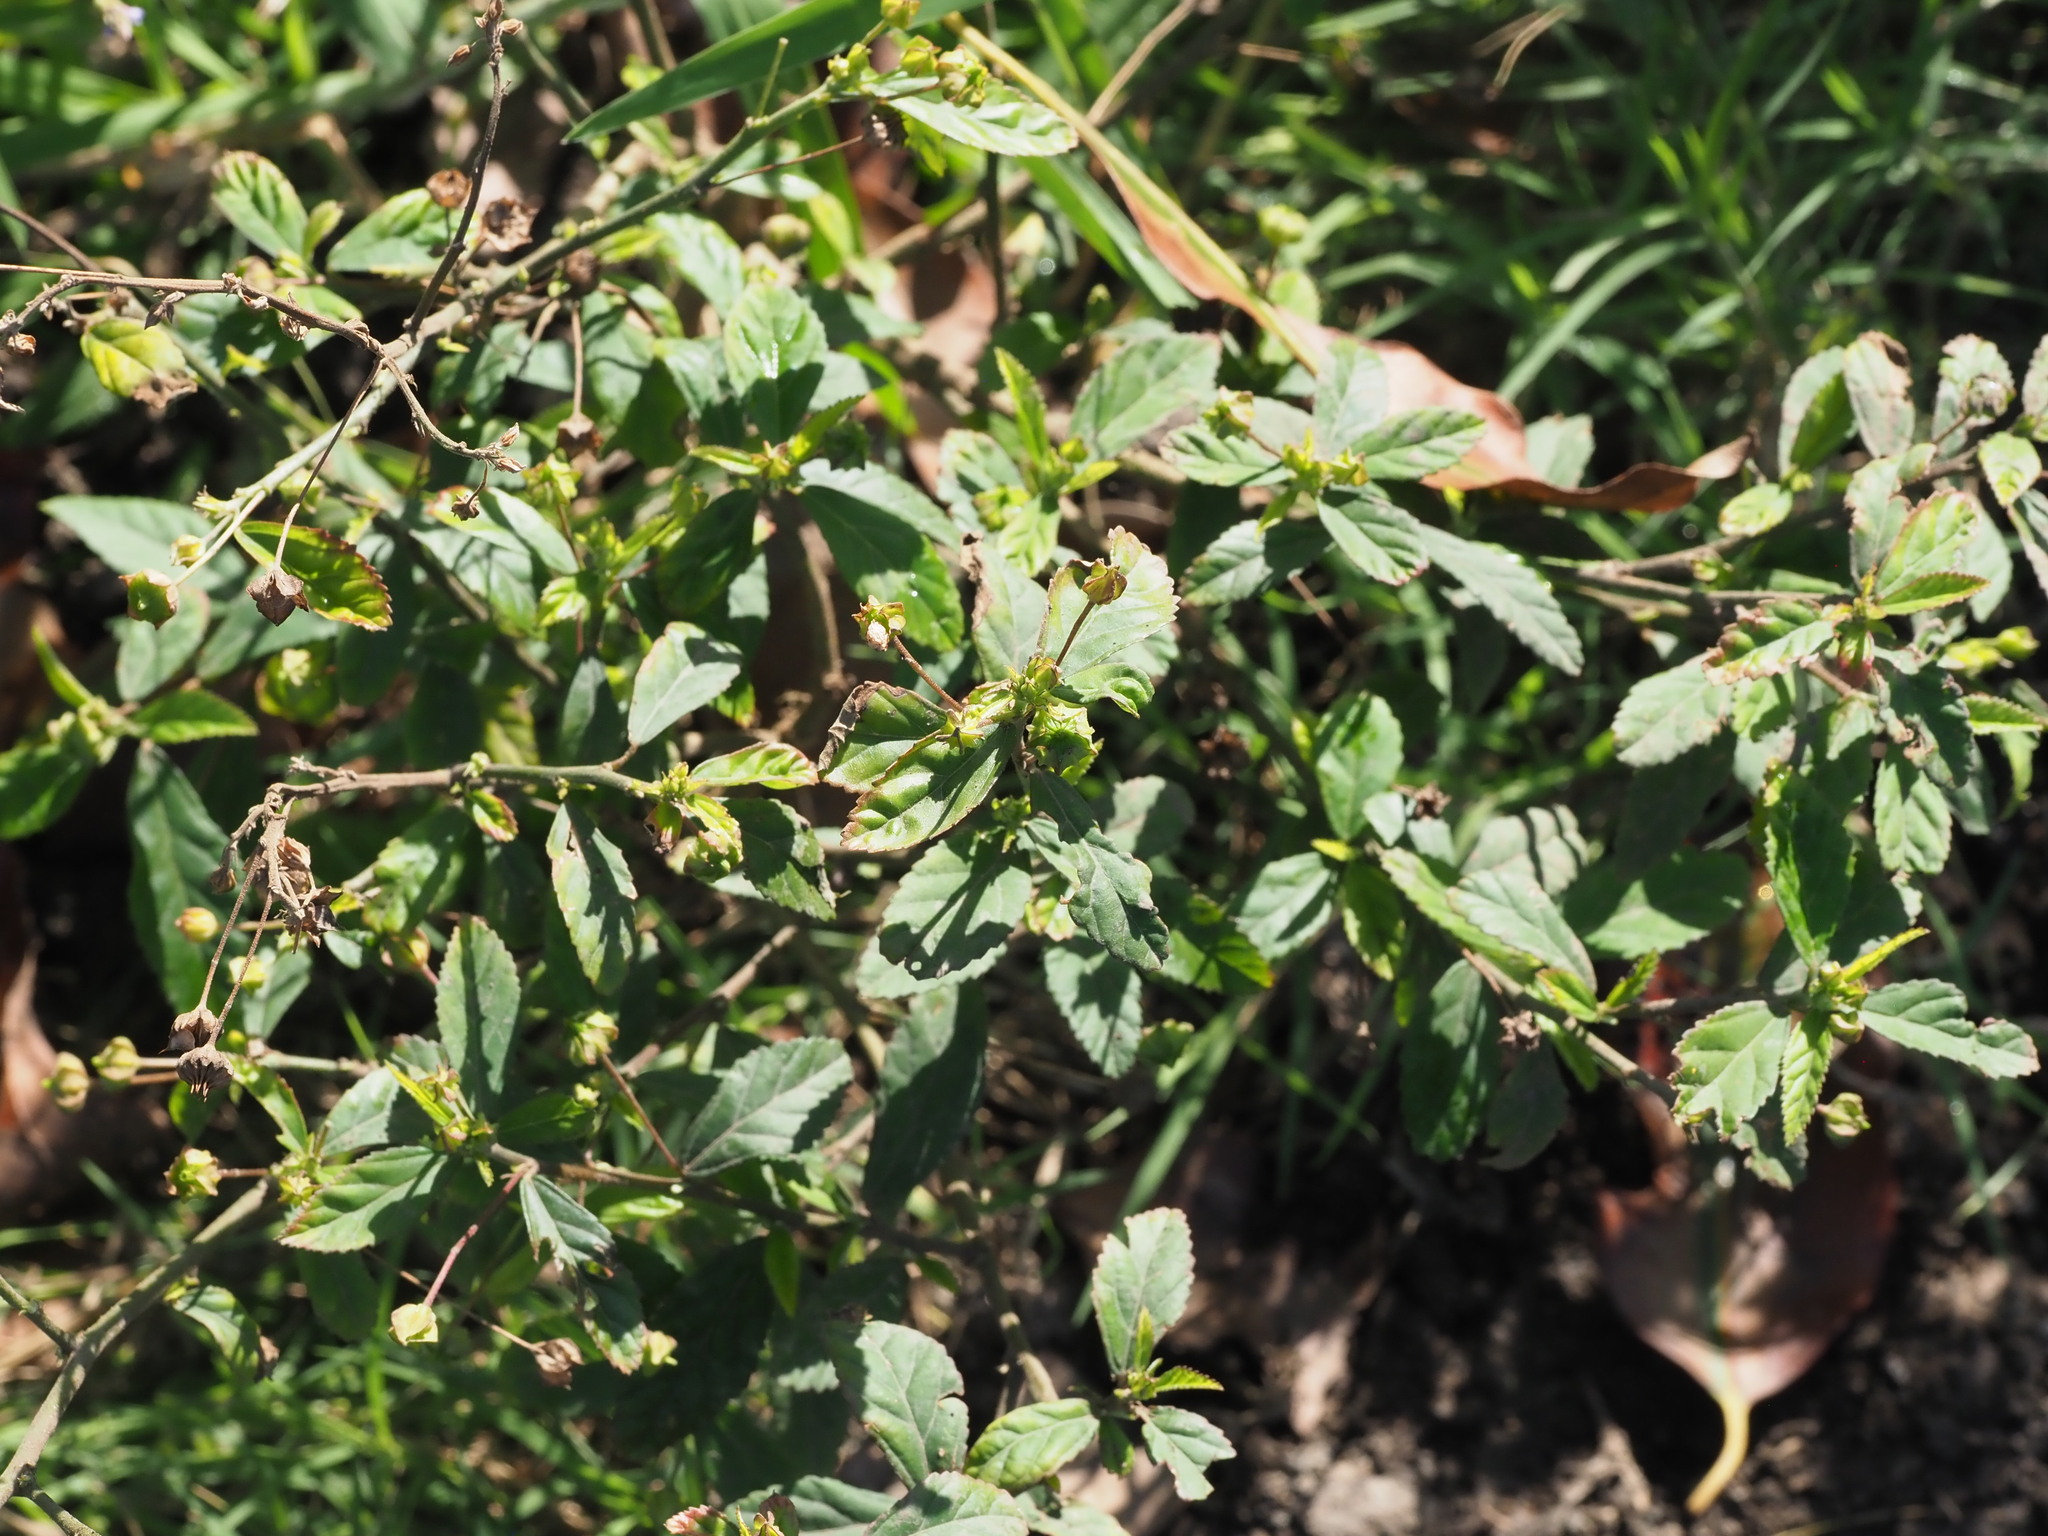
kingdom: Plantae
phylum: Tracheophyta
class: Magnoliopsida
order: Malvales
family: Malvaceae
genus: Sida
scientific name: Sida rhombifolia
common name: Queensland-hemp
